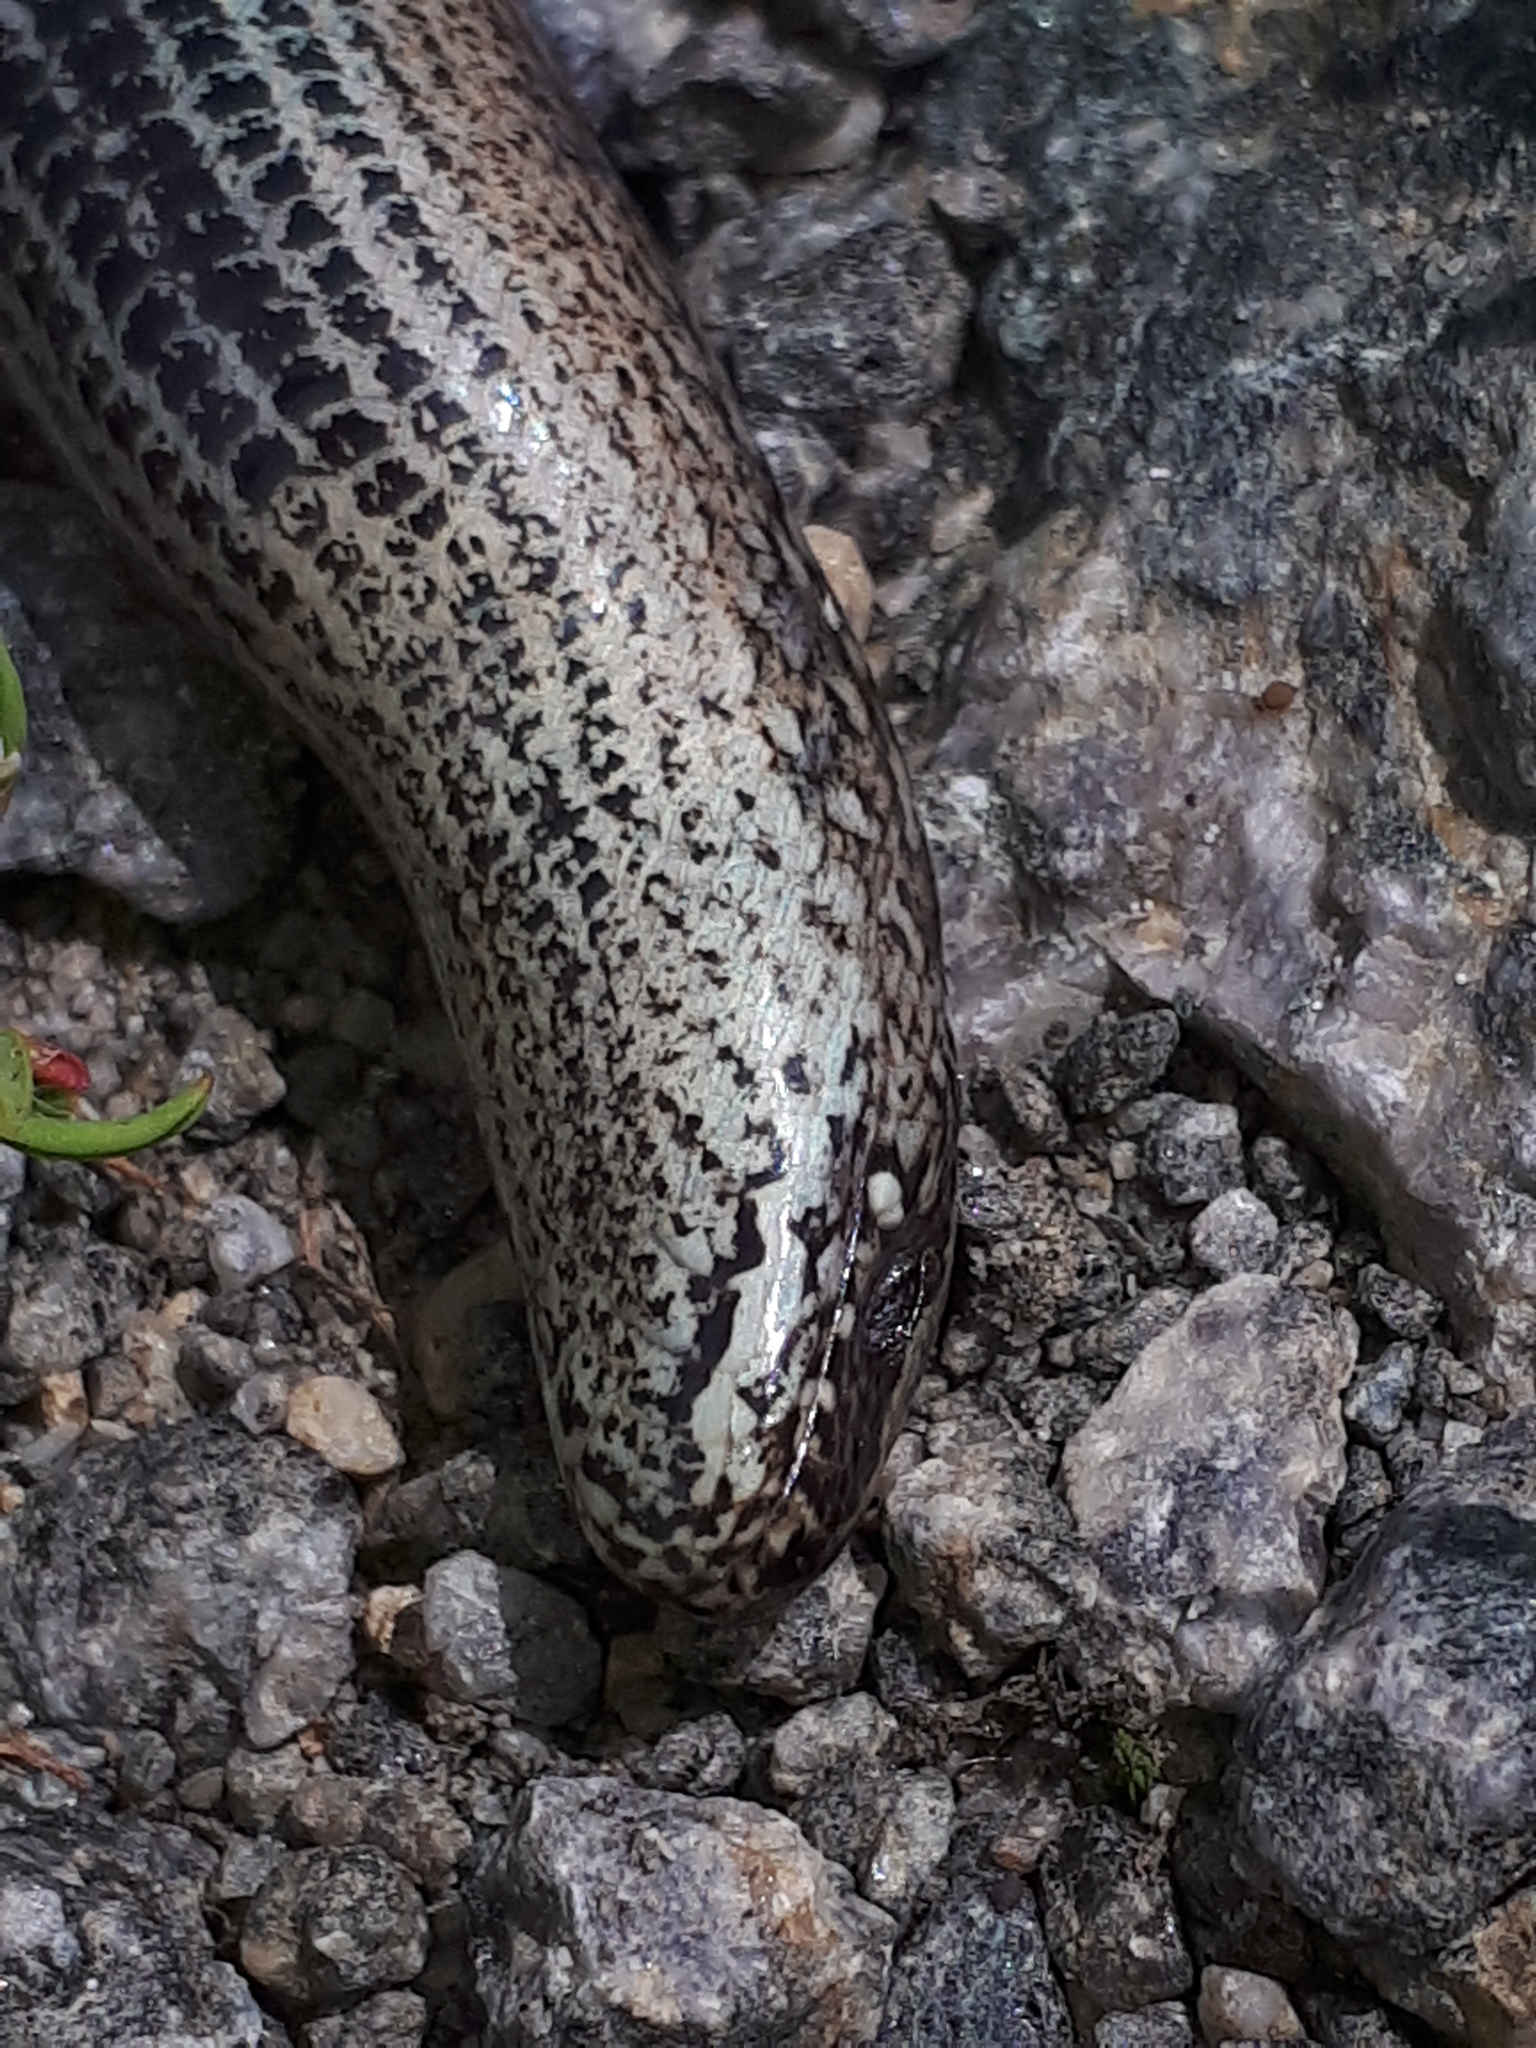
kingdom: Animalia
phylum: Chordata
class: Squamata
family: Anguidae
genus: Anguis
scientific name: Anguis fragilis
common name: Slow worm
